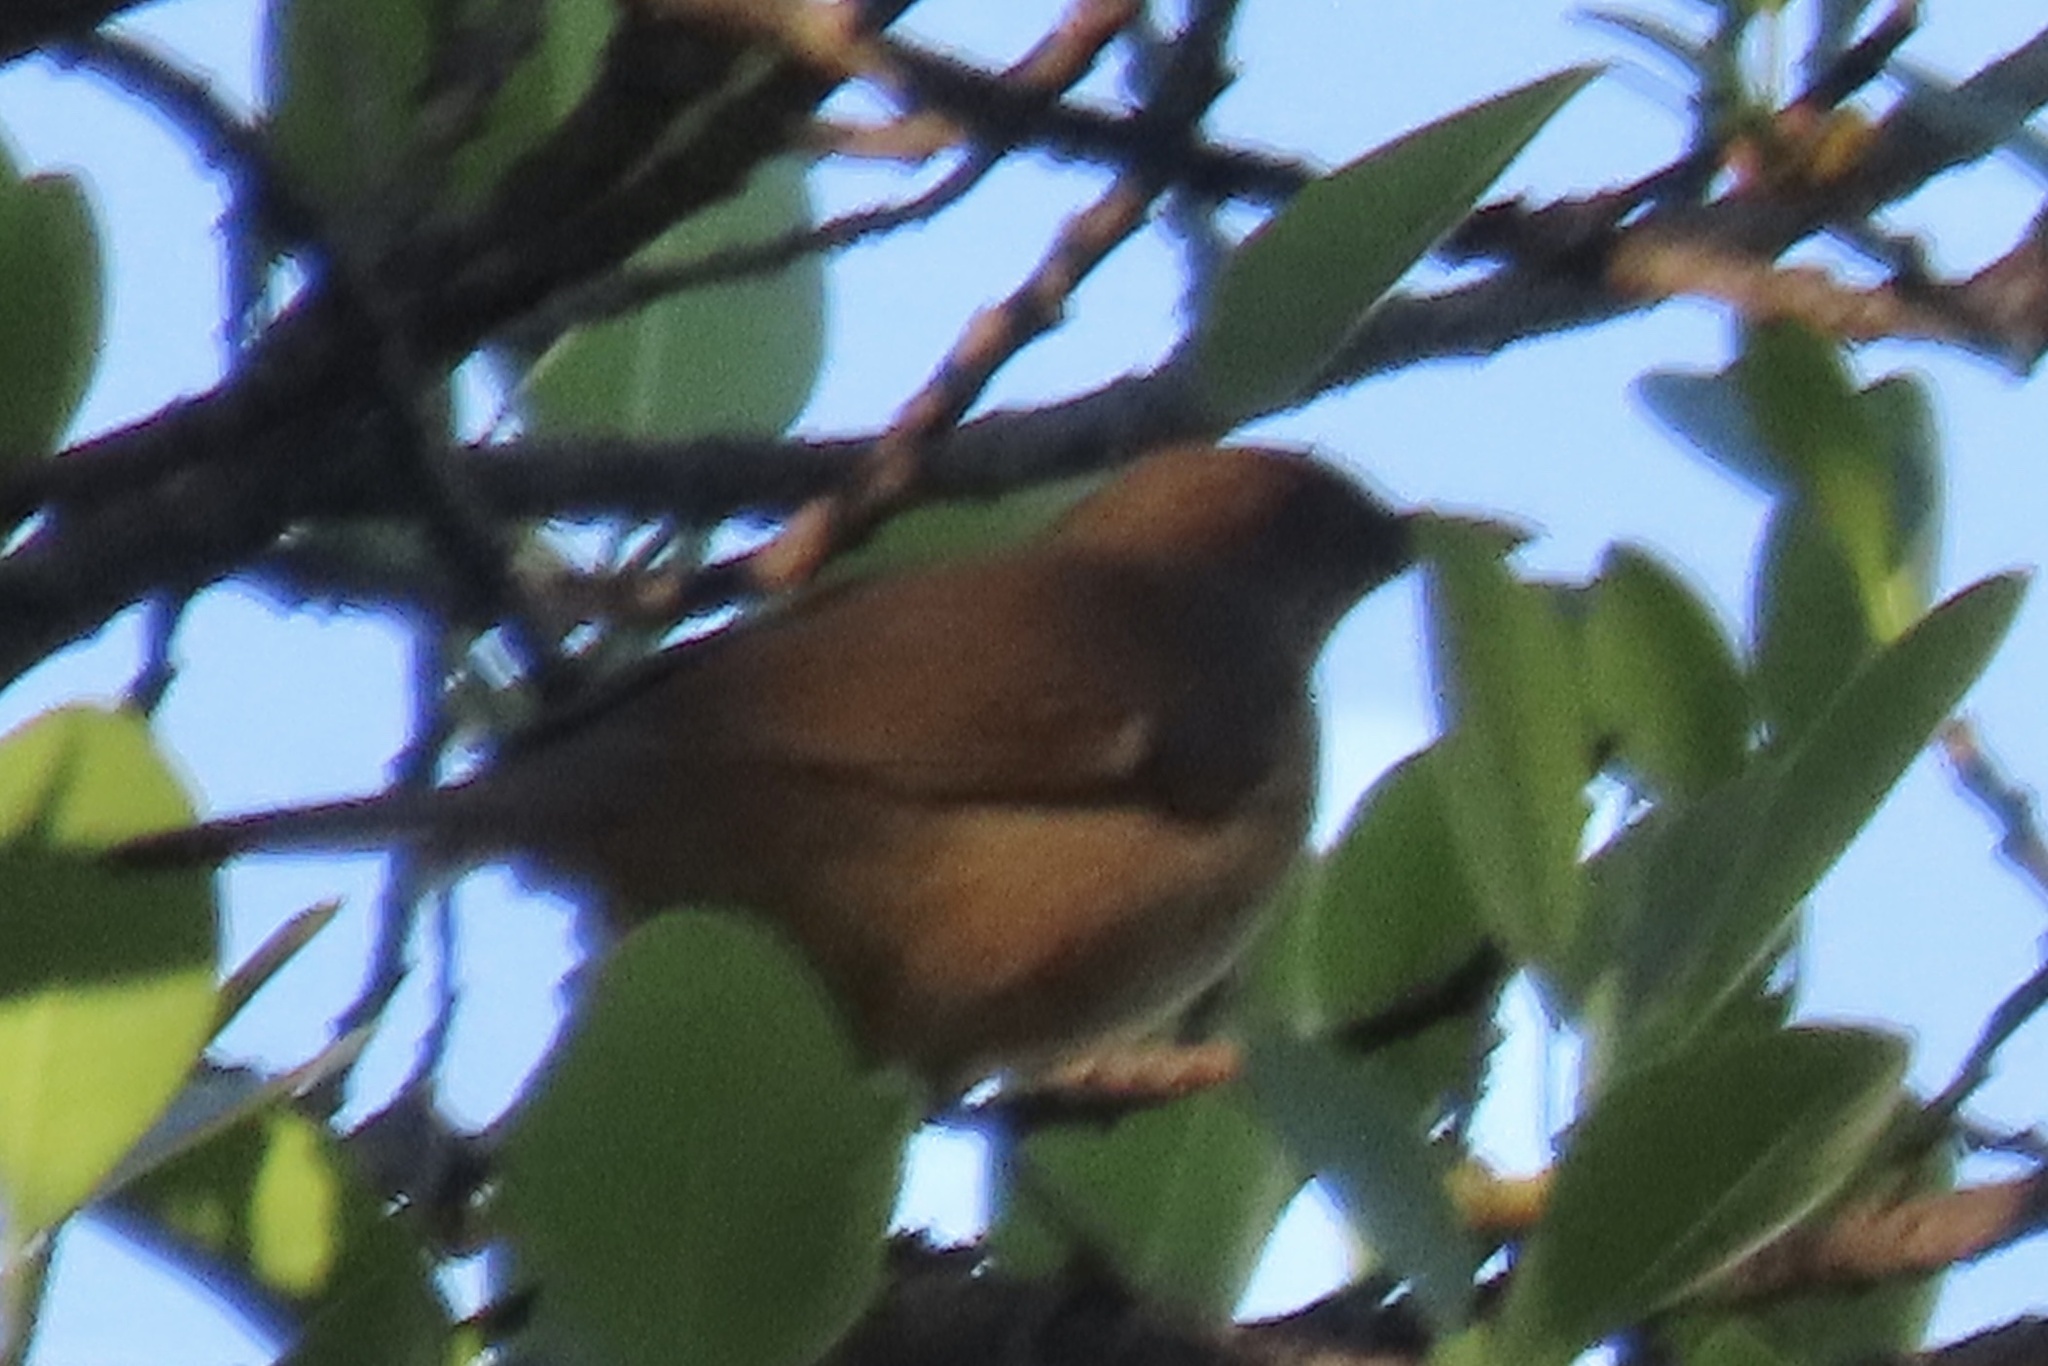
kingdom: Animalia
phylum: Chordata
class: Aves
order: Passeriformes
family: Turdidae
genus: Turdus
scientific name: Turdus grayi
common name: Clay-colored thrush
